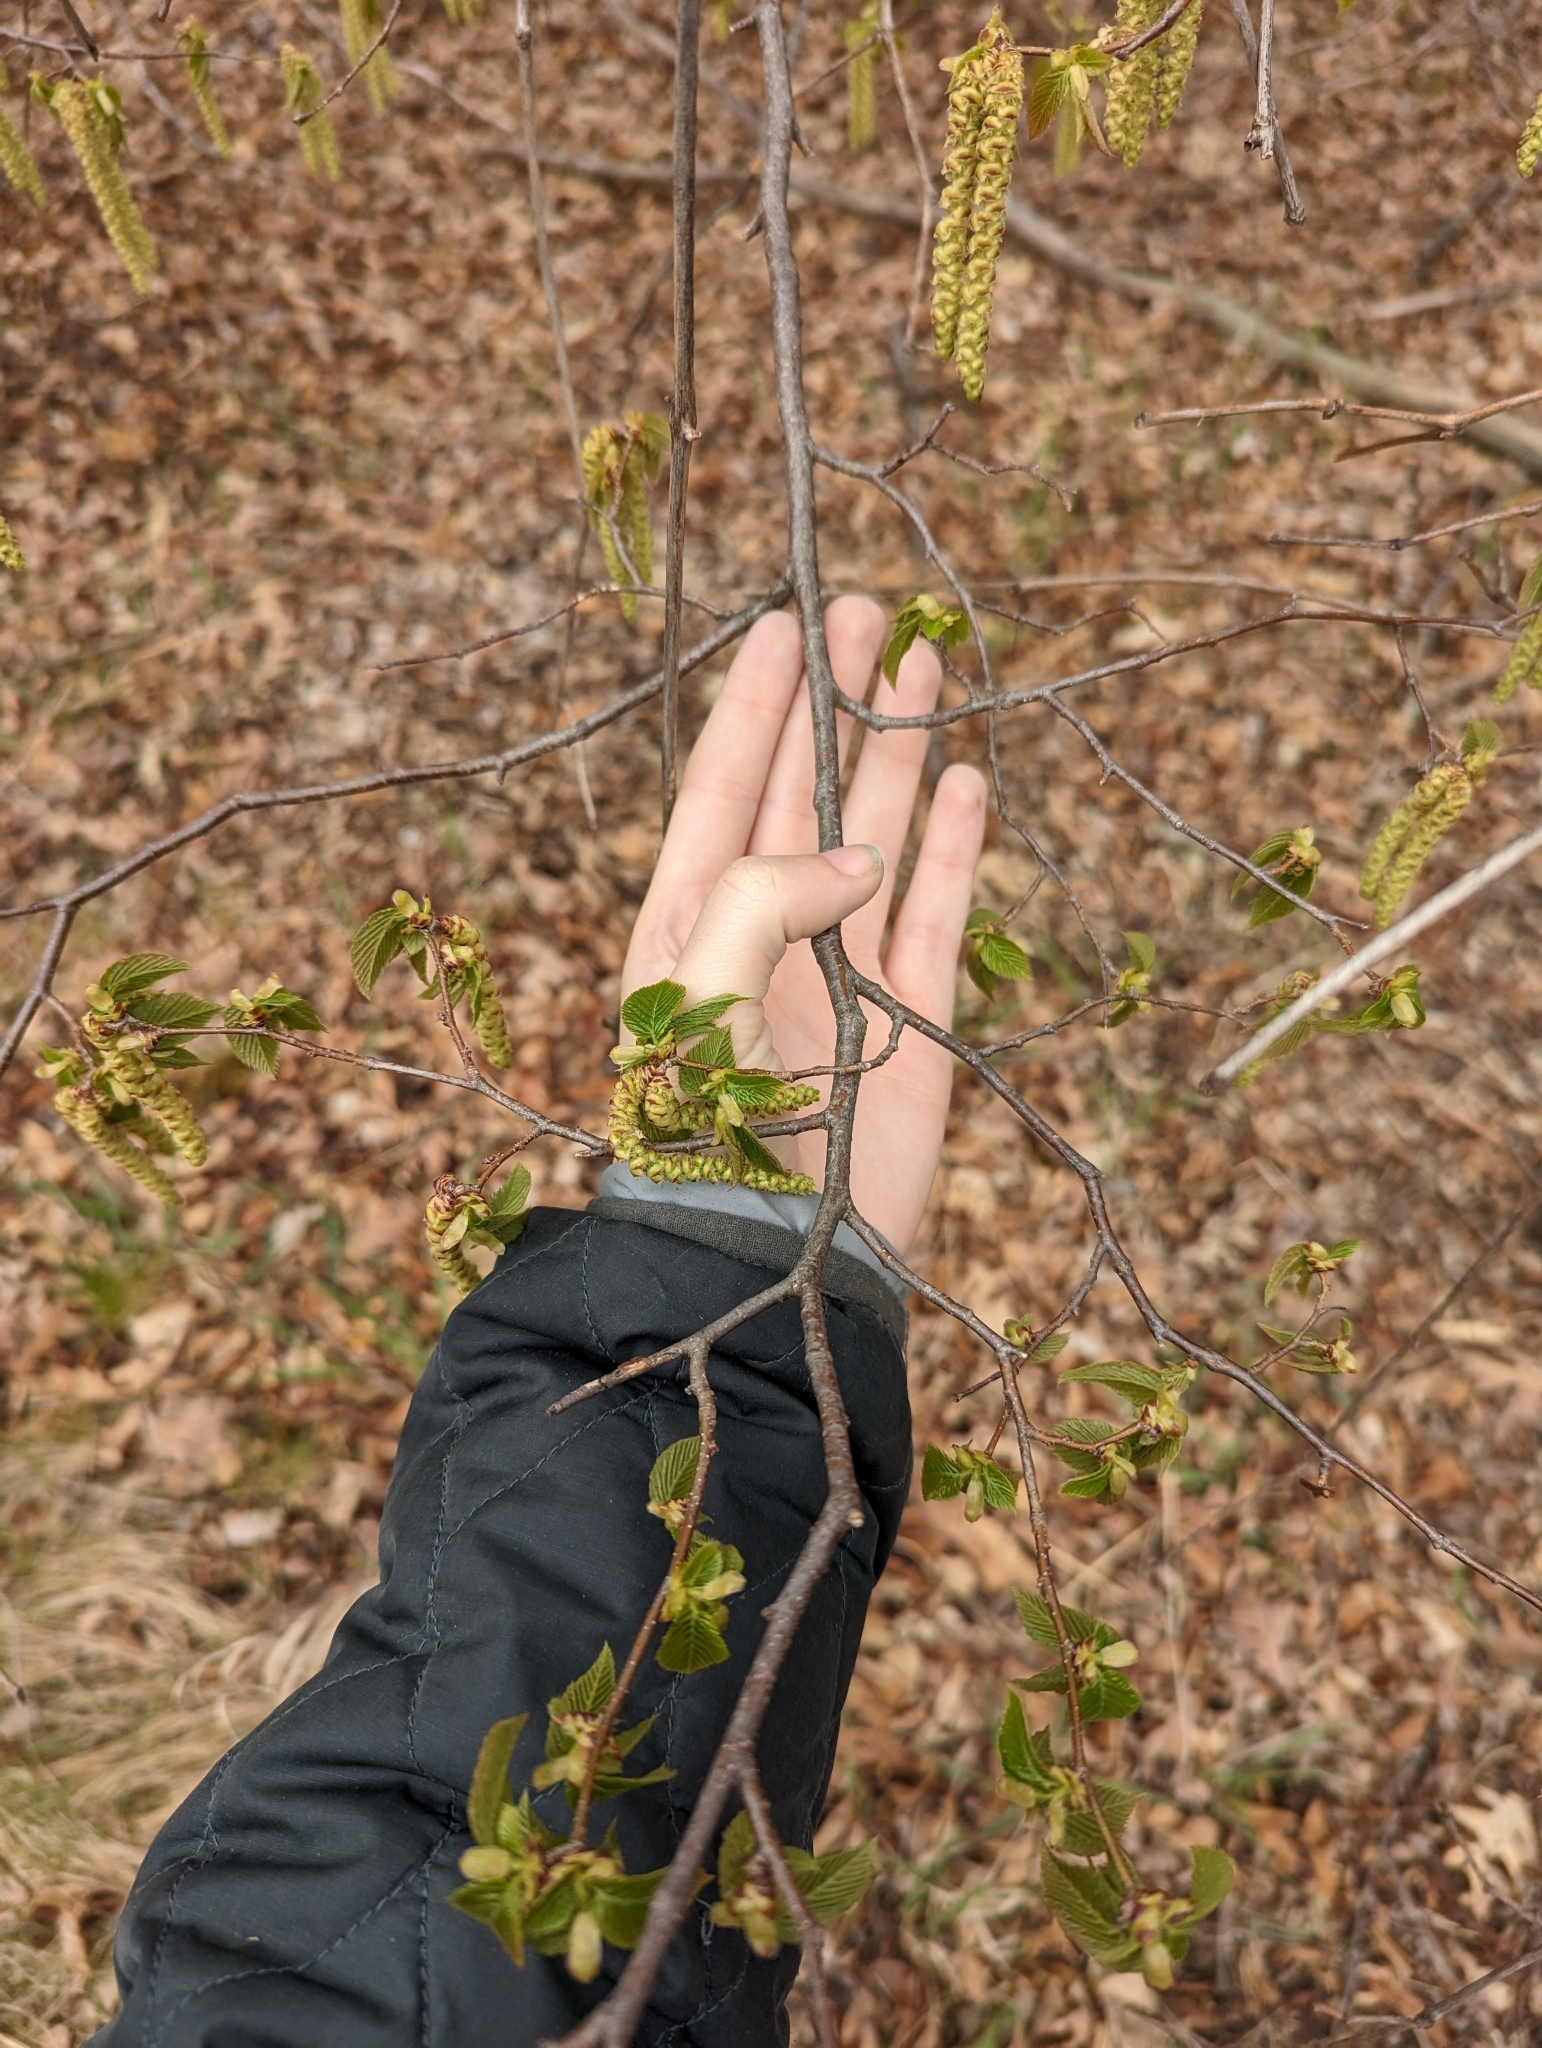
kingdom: Plantae
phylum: Tracheophyta
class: Magnoliopsida
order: Fagales
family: Betulaceae
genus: Ostrya
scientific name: Ostrya virginiana
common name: Ironwood
